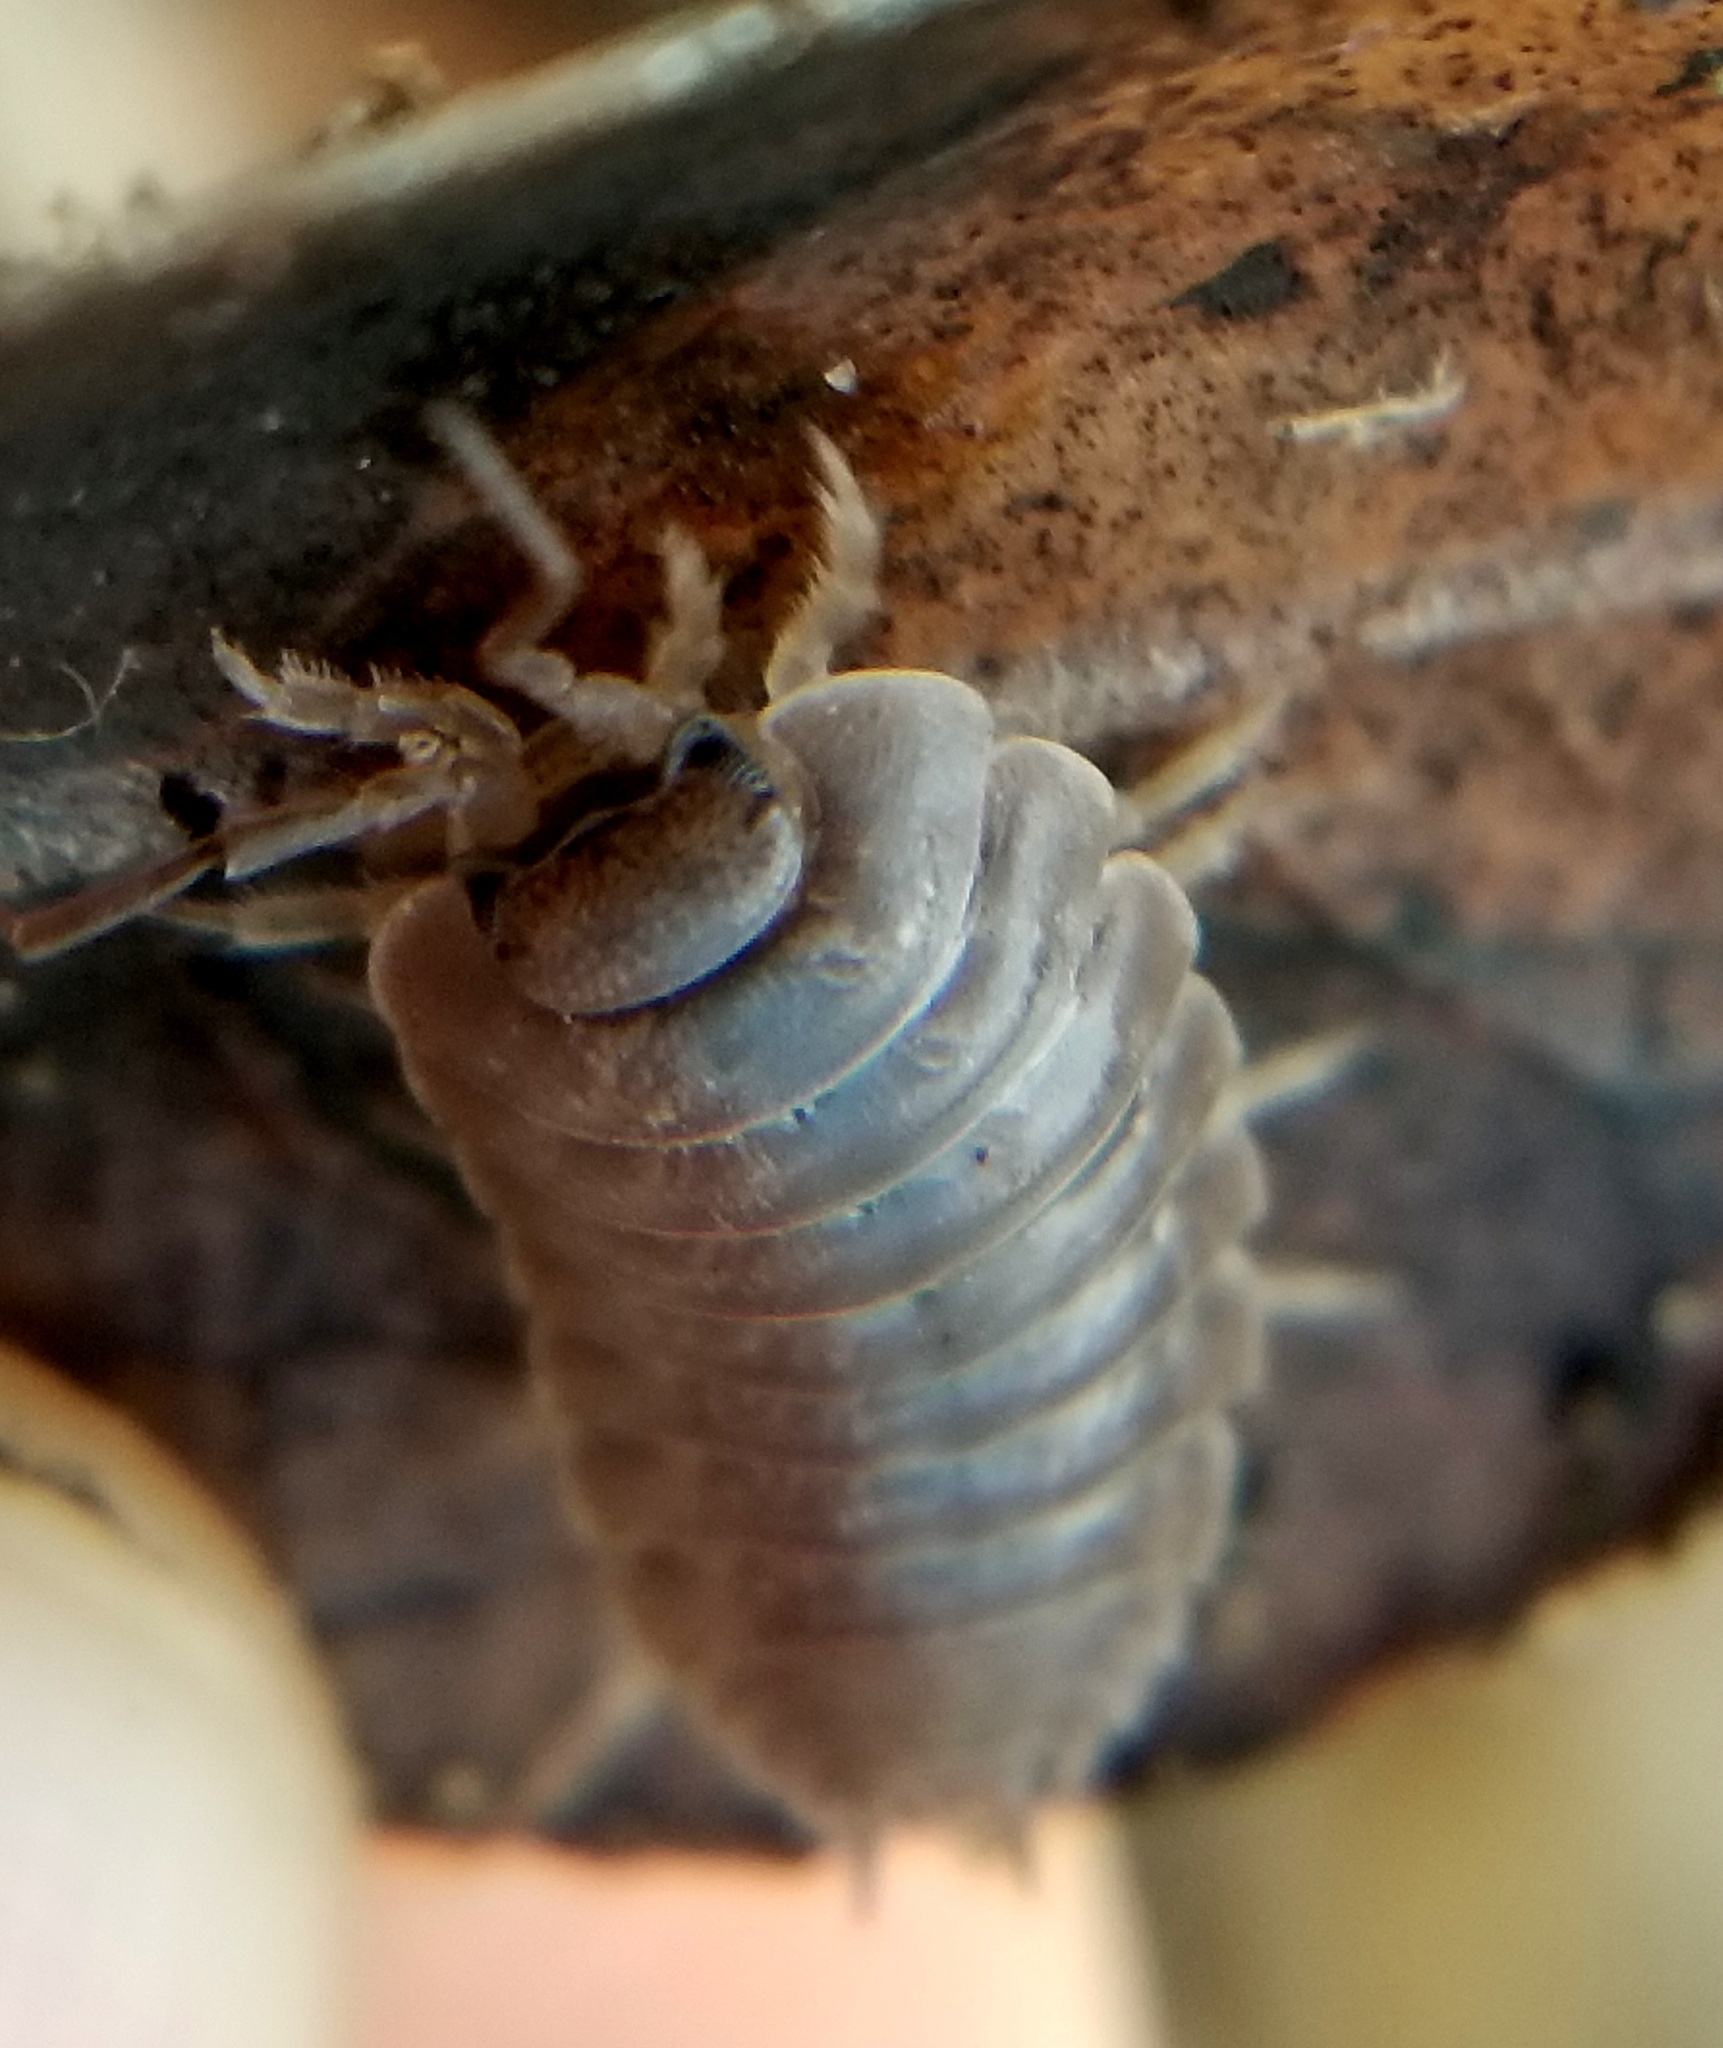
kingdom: Animalia
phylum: Arthropoda
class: Malacostraca
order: Isopoda
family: Porcellionidae
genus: Porcellio
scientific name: Porcellio laevis
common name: Swift woodlouse
